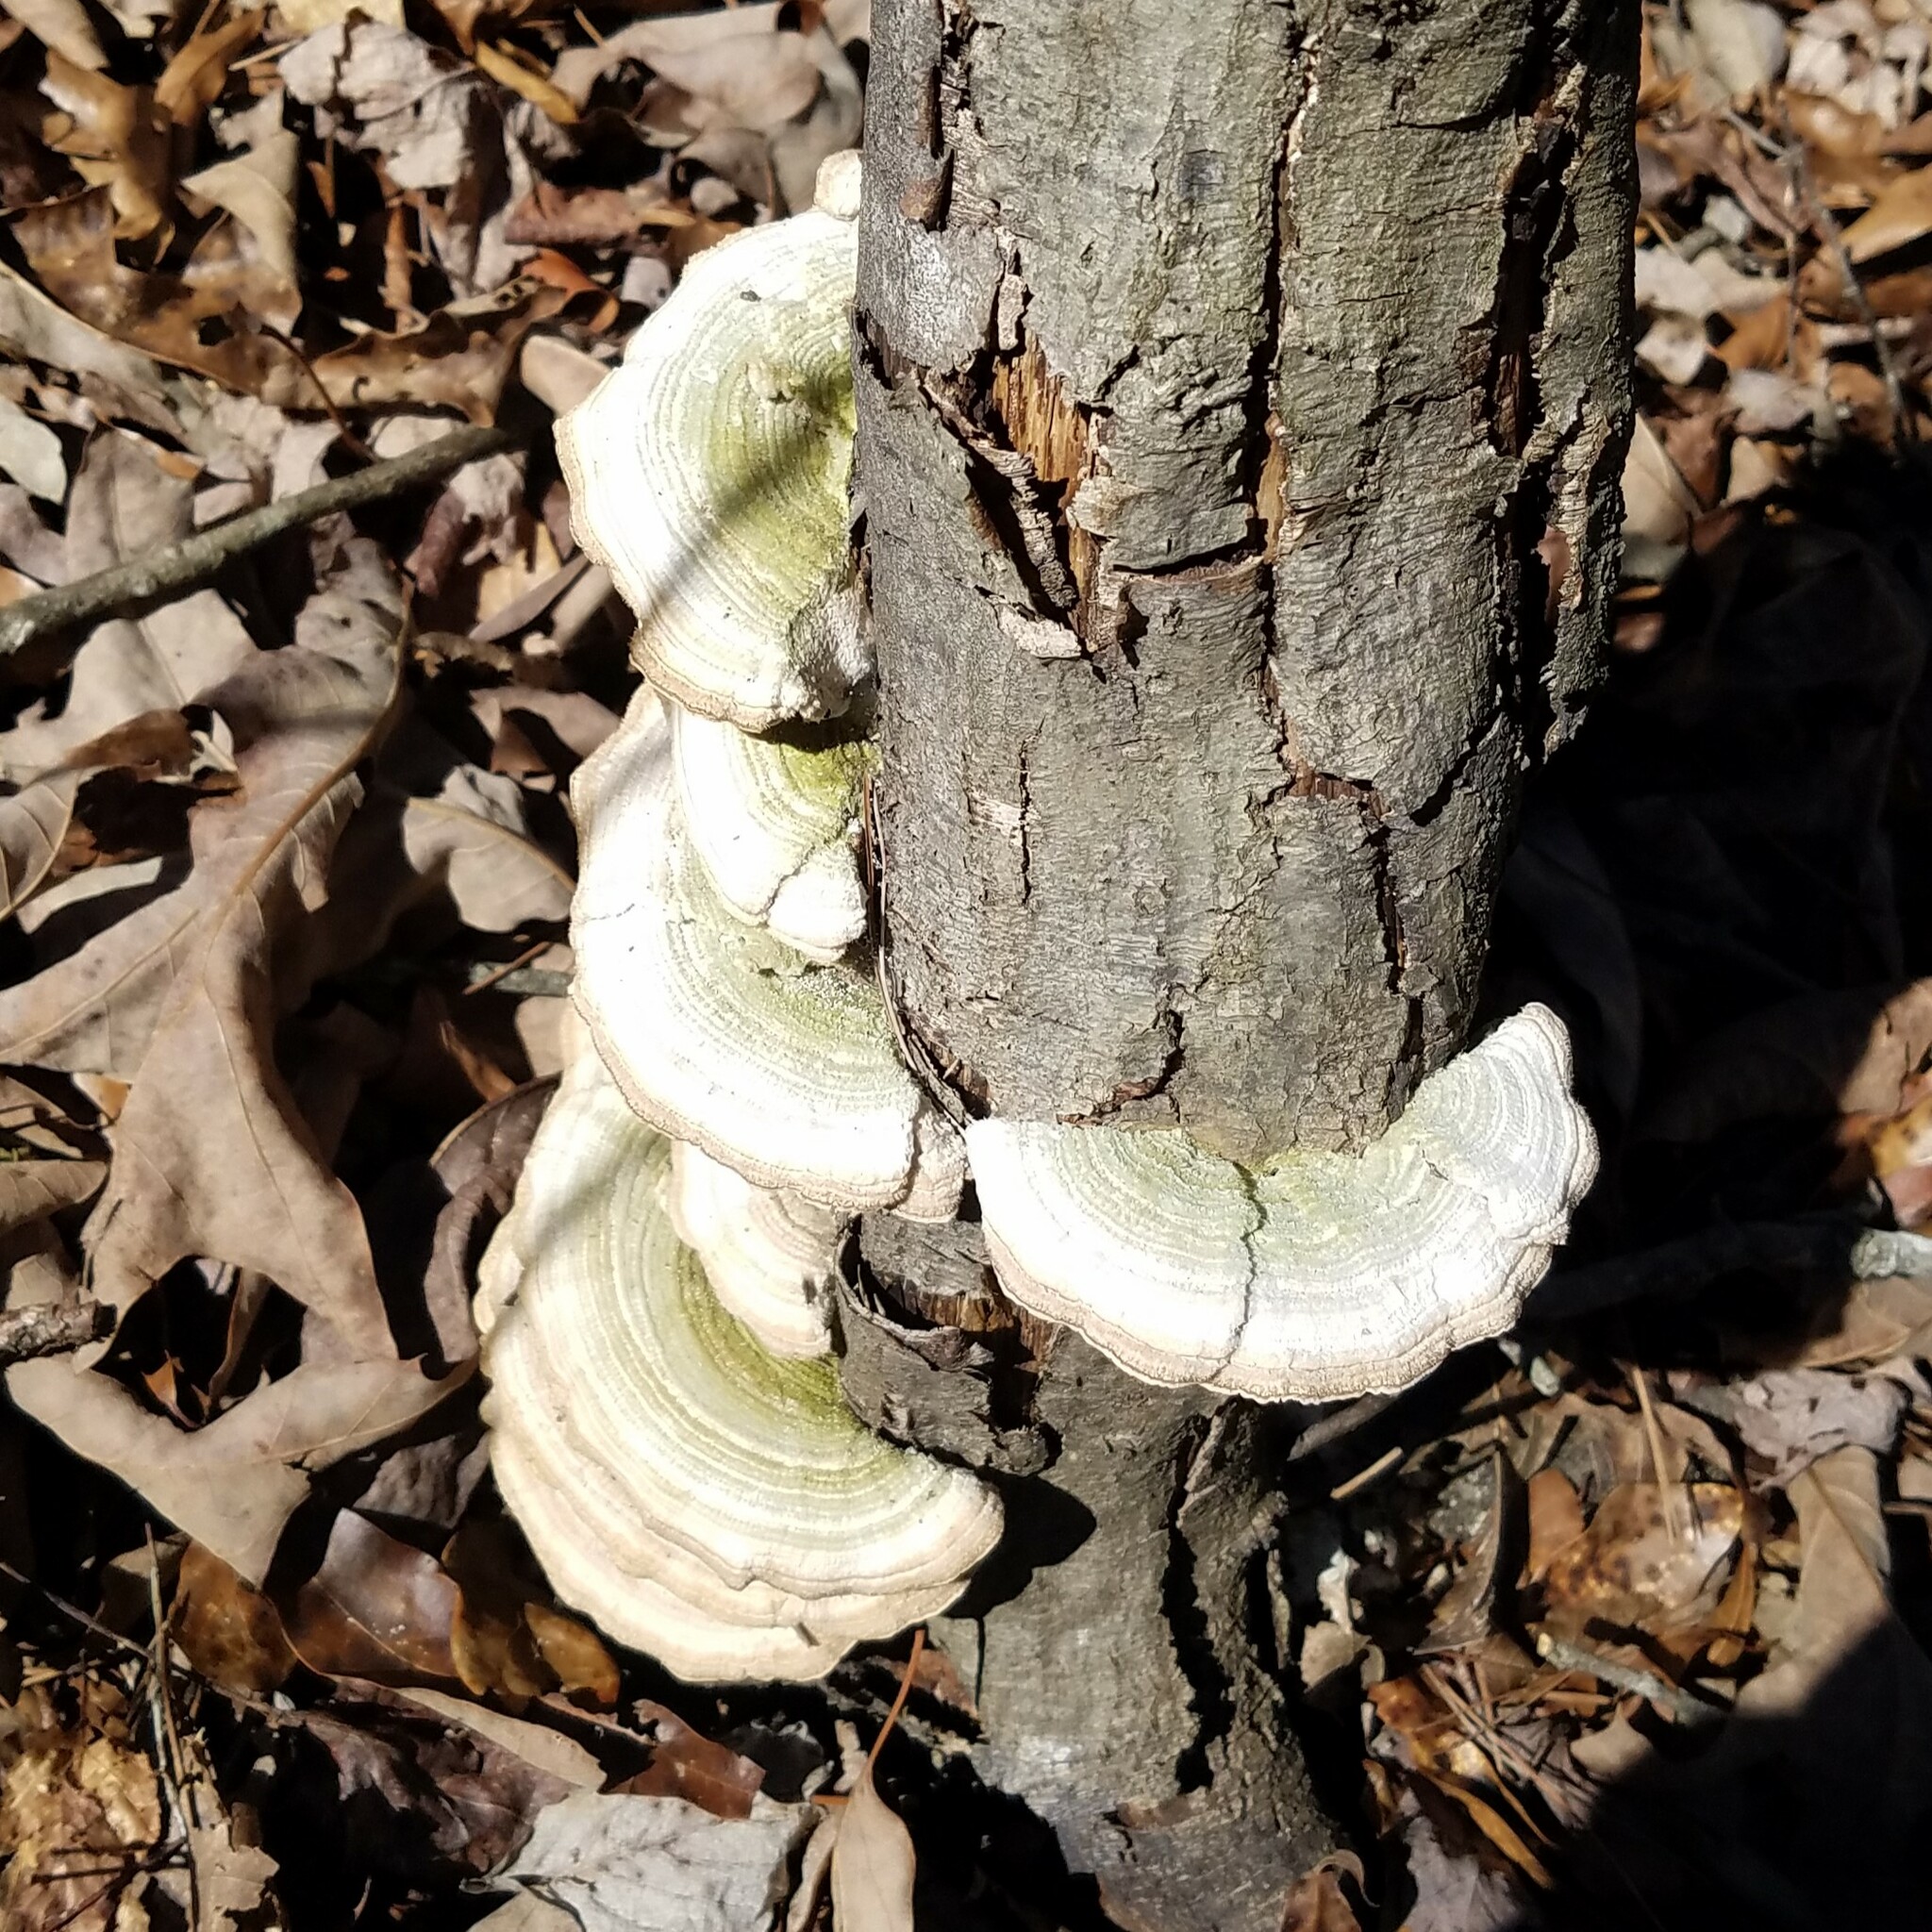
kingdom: Fungi
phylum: Basidiomycota
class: Agaricomycetes
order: Polyporales
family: Polyporaceae
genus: Lenzites
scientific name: Lenzites betulinus
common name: Birch mazegill
